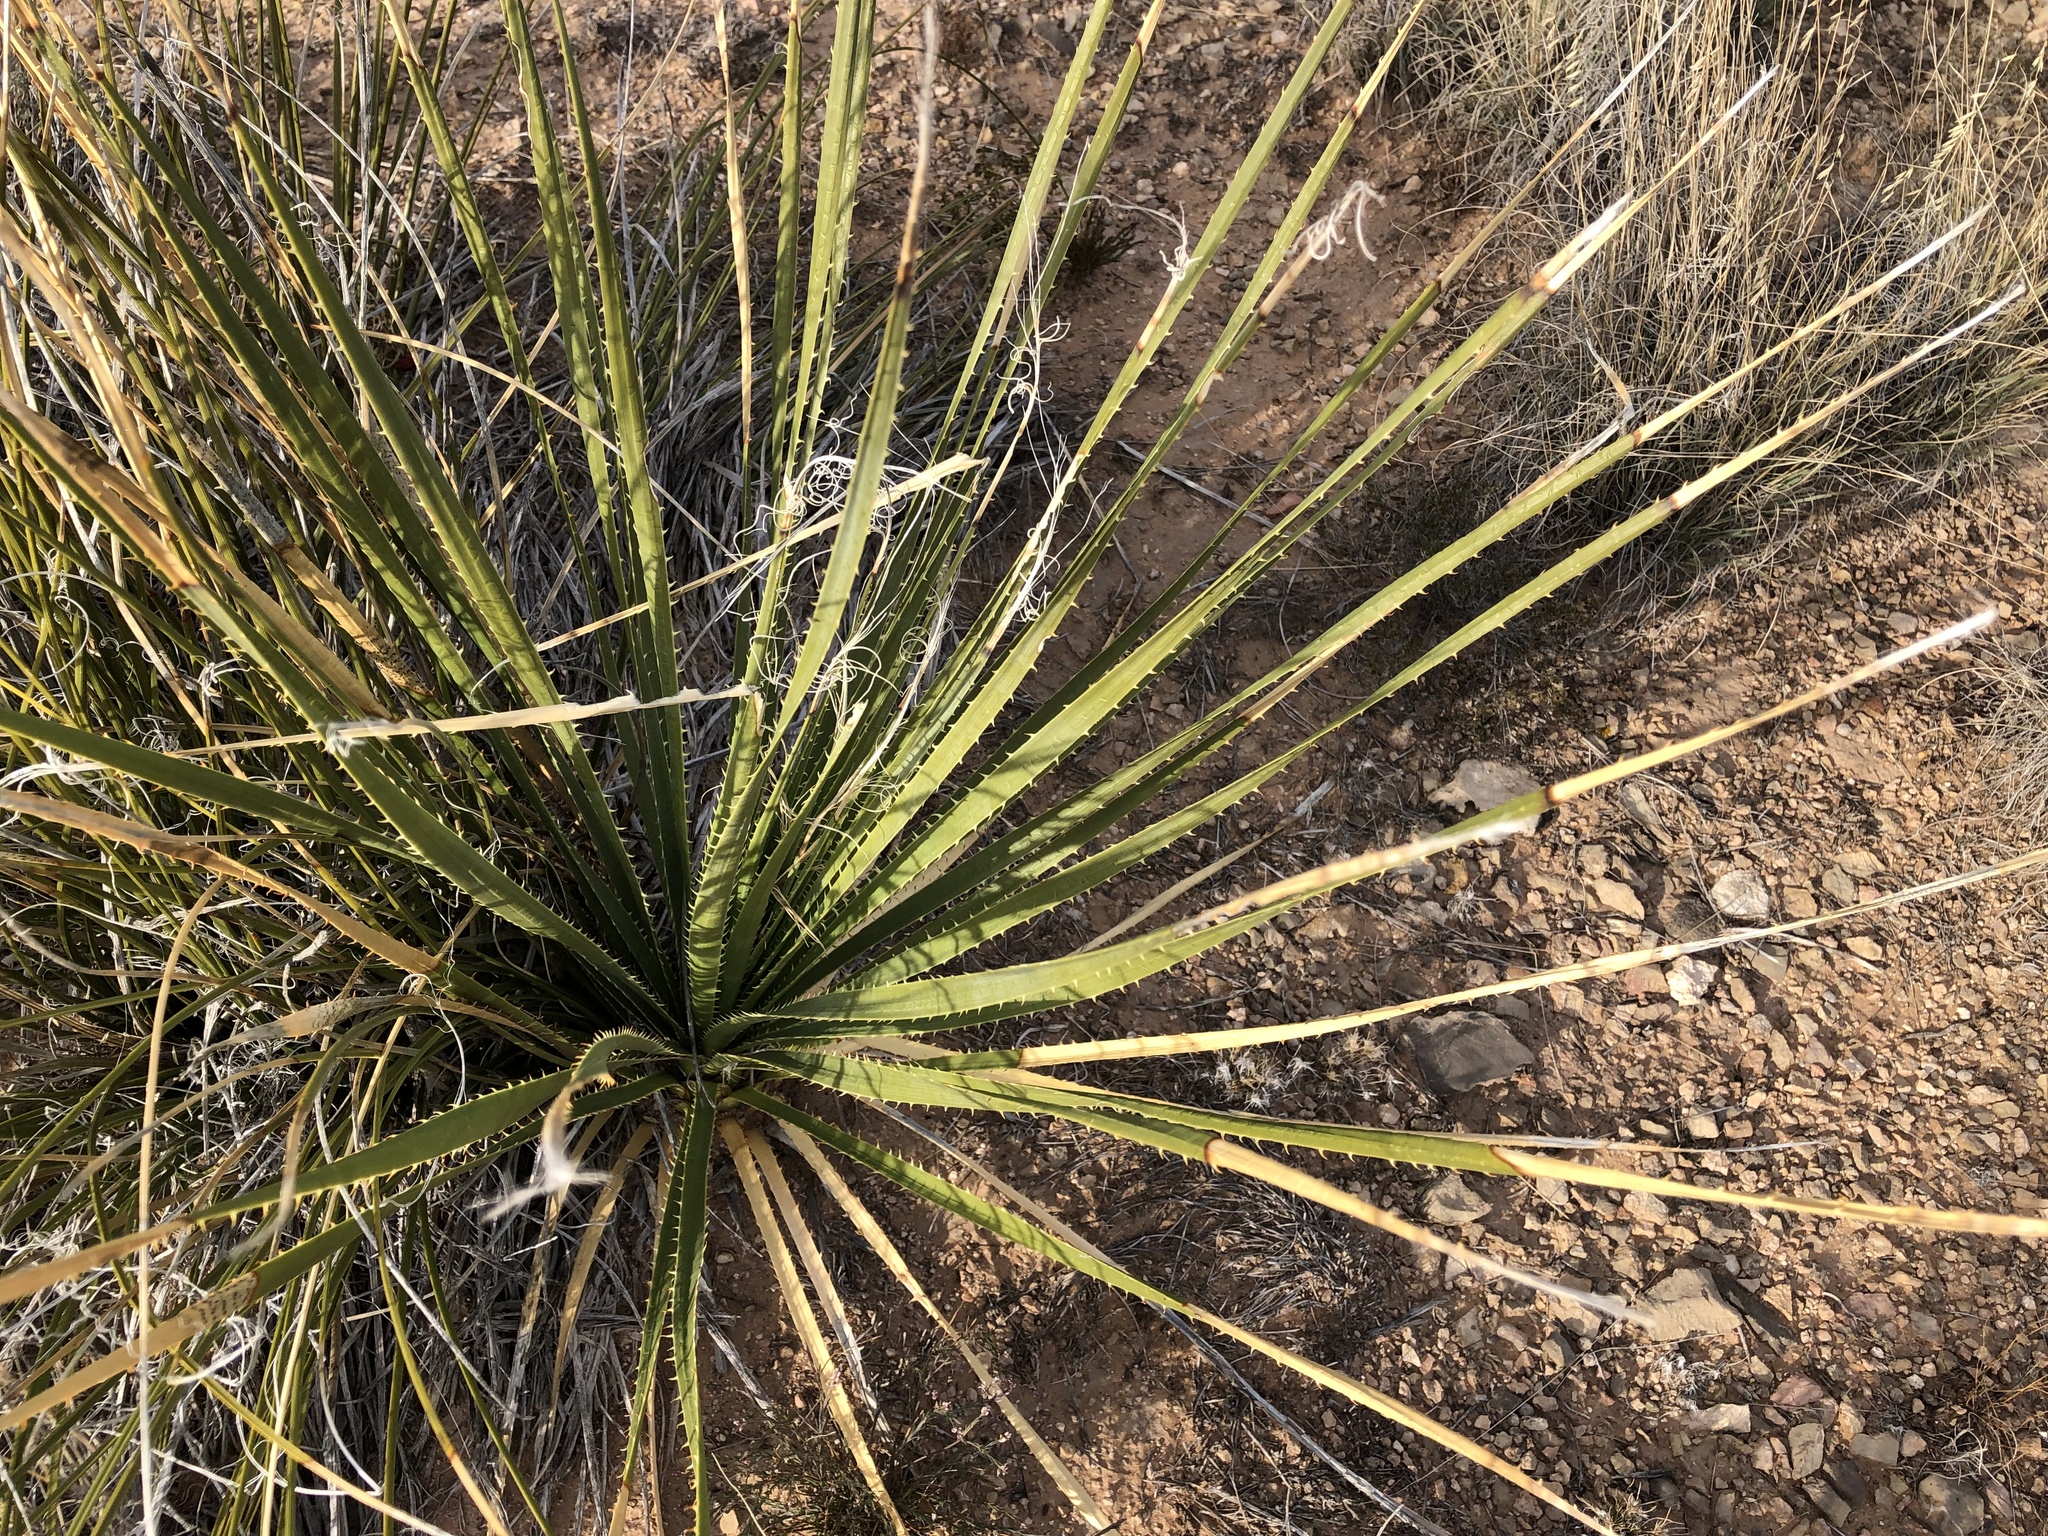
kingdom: Plantae
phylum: Tracheophyta
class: Liliopsida
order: Asparagales
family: Asparagaceae
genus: Dasylirion
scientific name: Dasylirion wheeleri
